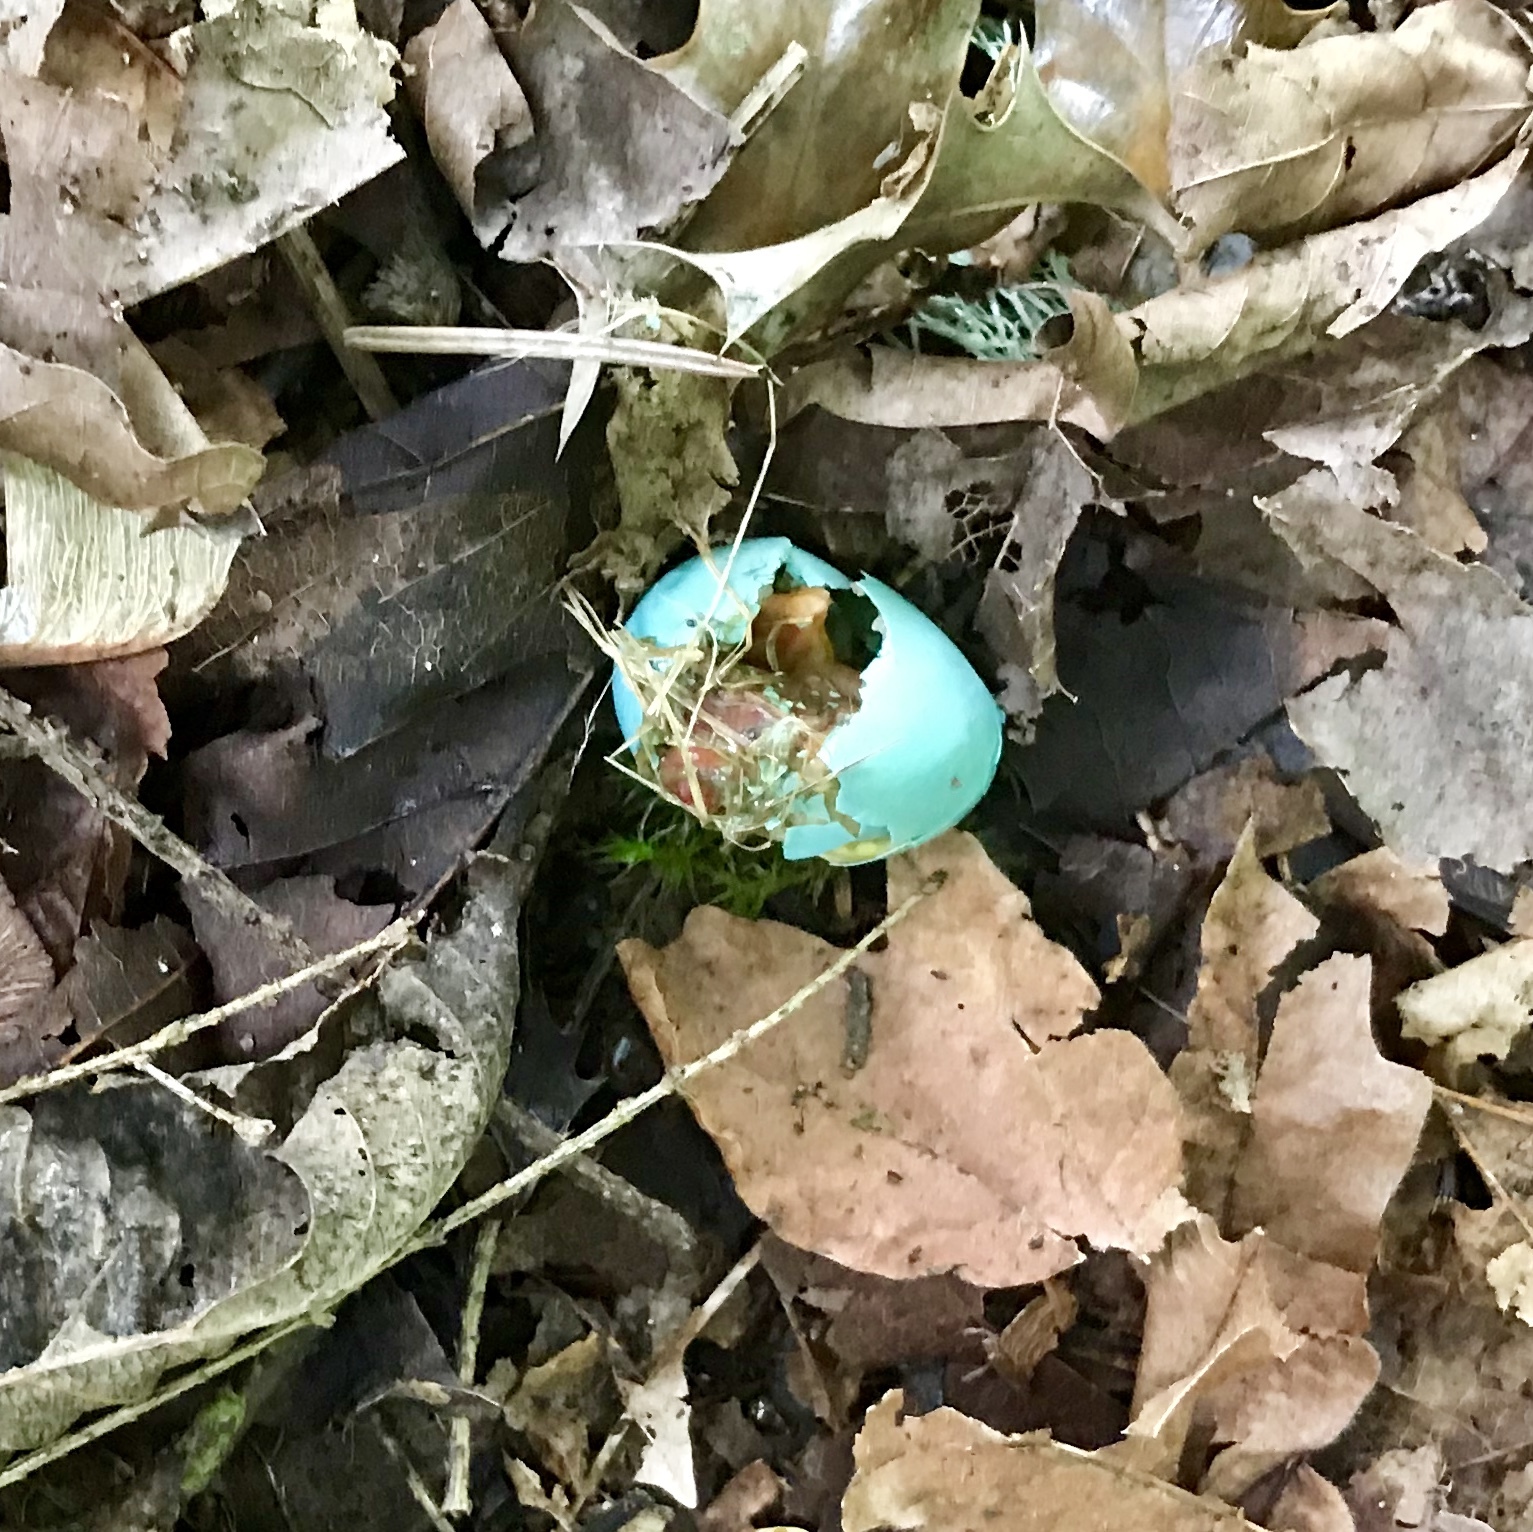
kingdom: Animalia
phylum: Chordata
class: Aves
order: Passeriformes
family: Turdidae
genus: Turdus
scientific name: Turdus migratorius
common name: American robin
